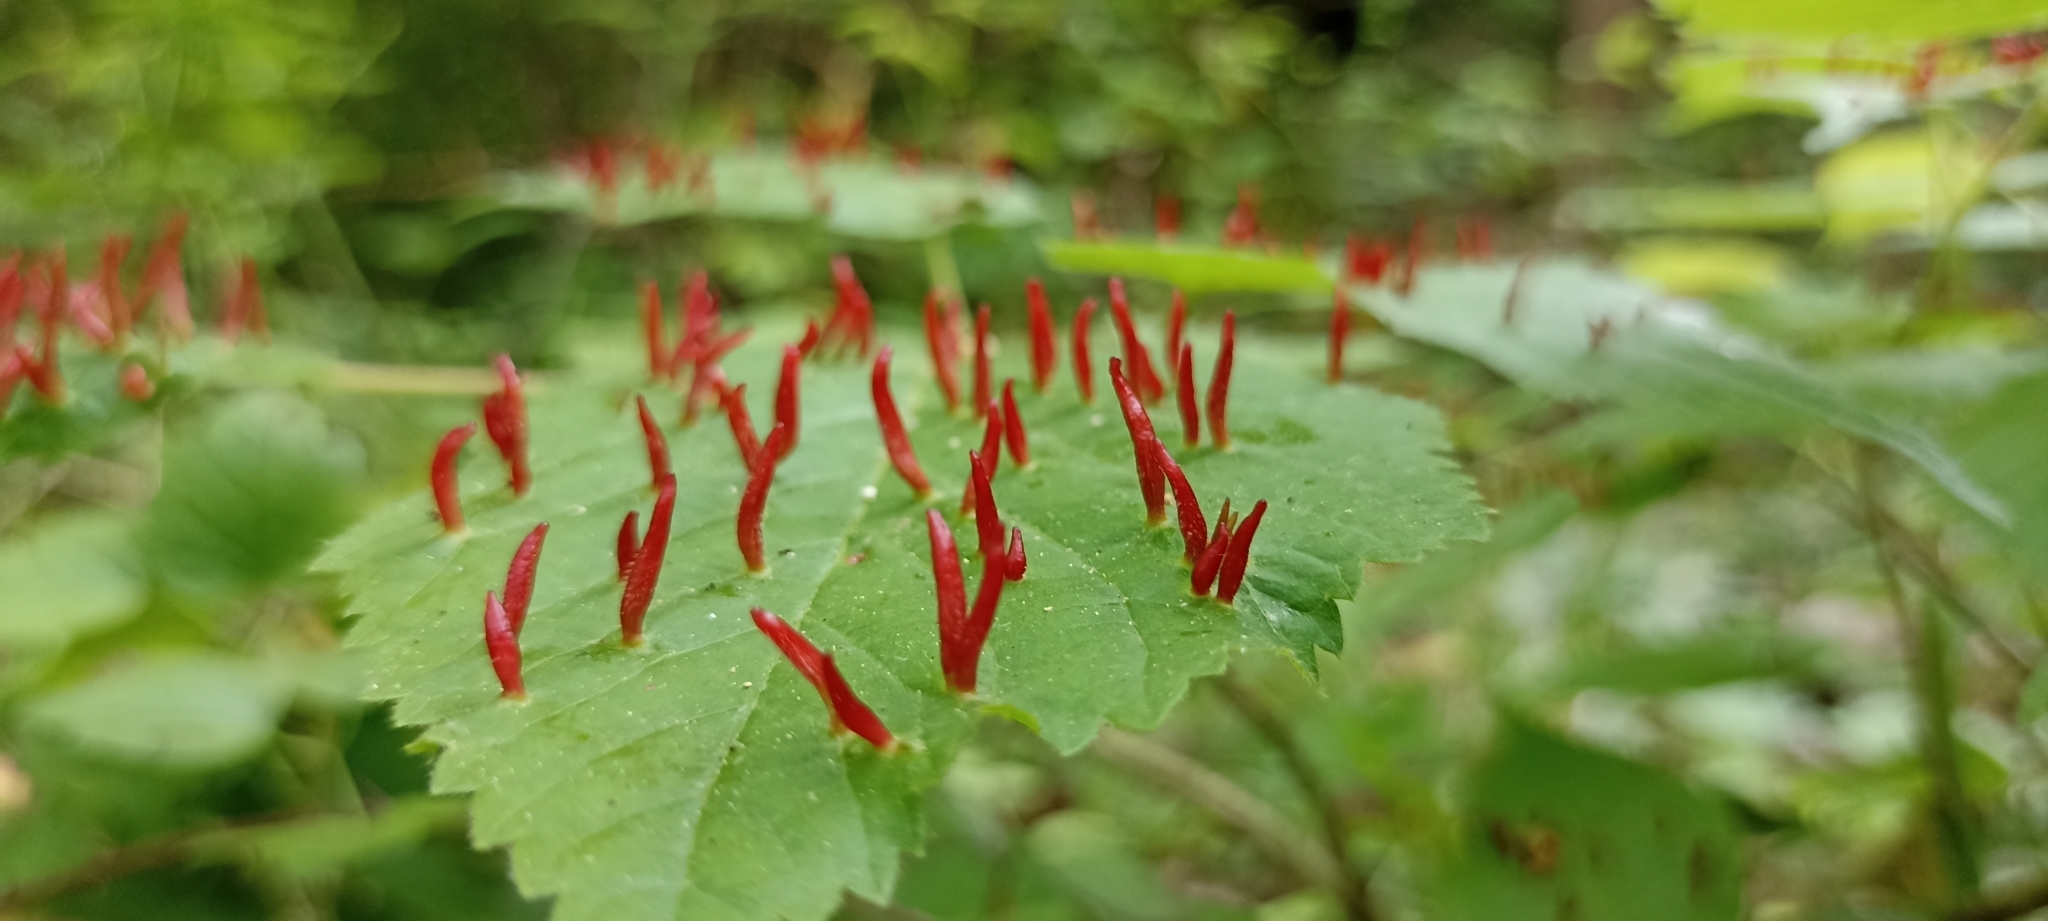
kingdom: Animalia
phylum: Arthropoda
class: Arachnida
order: Trombidiformes
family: Eriophyidae
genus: Eriophyes
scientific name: Eriophyes tiliae
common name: Red nail gall mite
